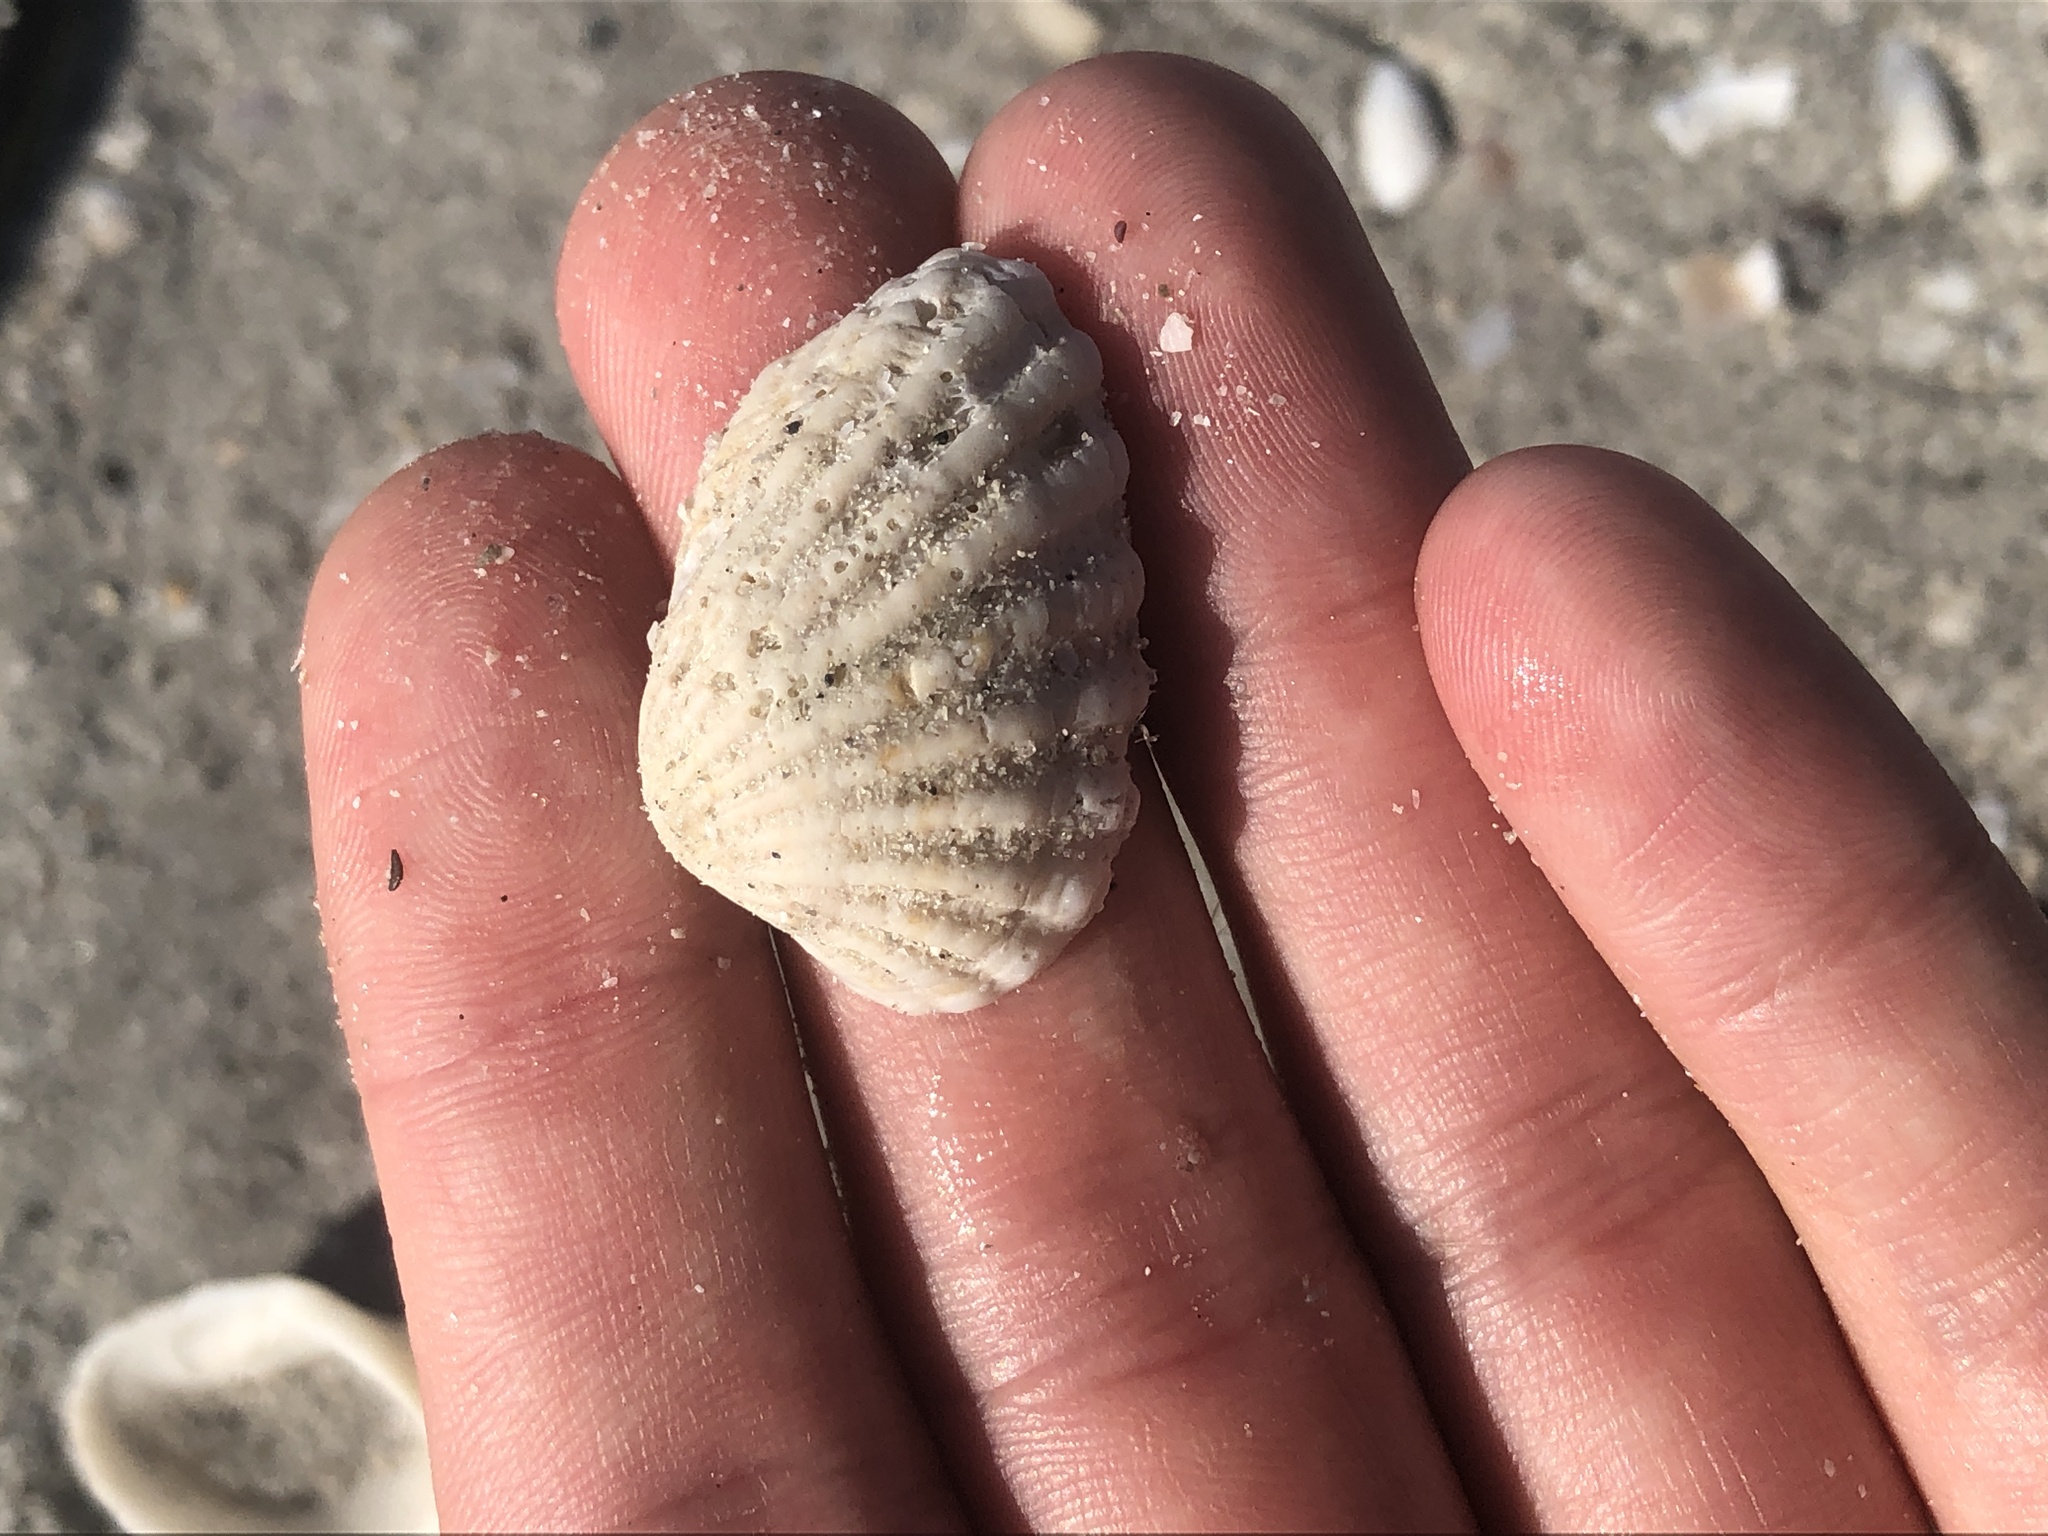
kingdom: Animalia
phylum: Mollusca
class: Bivalvia
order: Carditida
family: Carditidae
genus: Cardites
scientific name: Cardites floridanus
